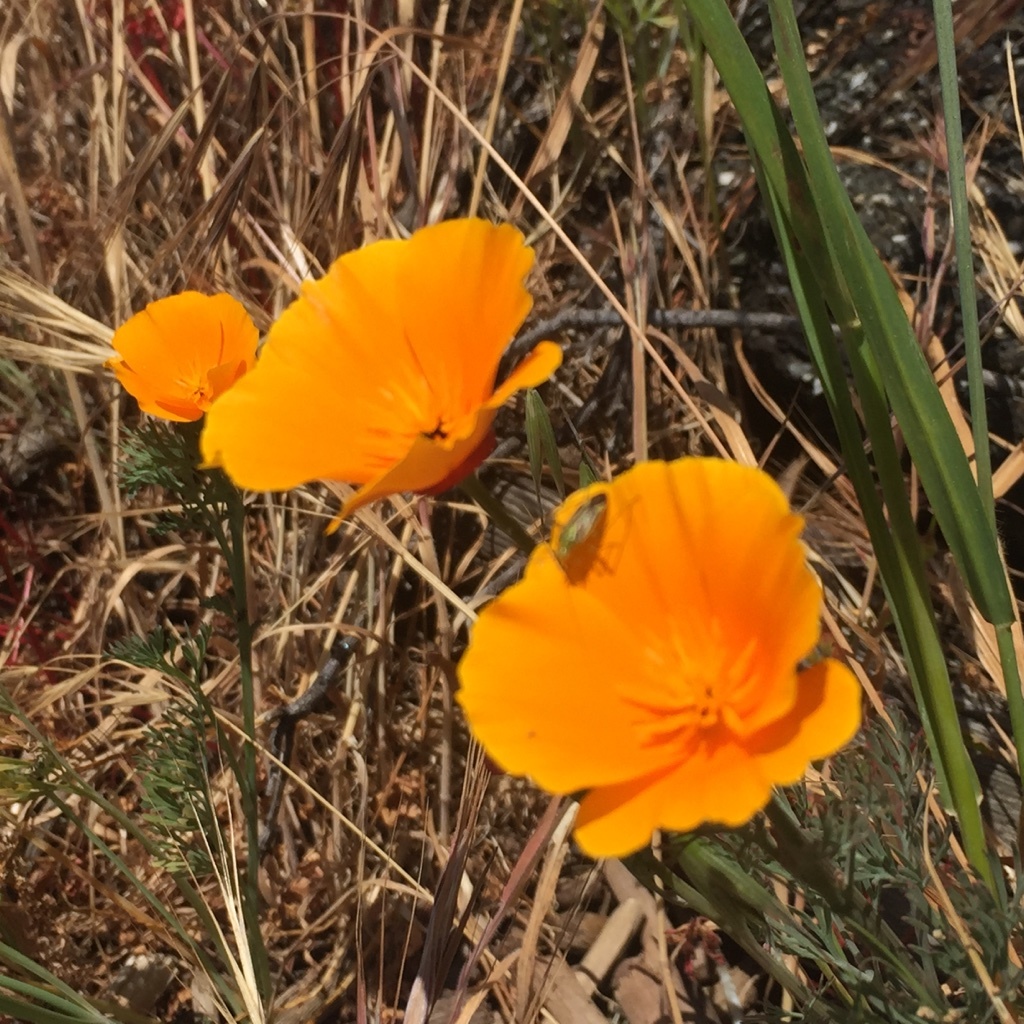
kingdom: Plantae
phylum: Tracheophyta
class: Magnoliopsida
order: Ranunculales
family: Papaveraceae
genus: Eschscholzia
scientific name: Eschscholzia californica
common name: California poppy
